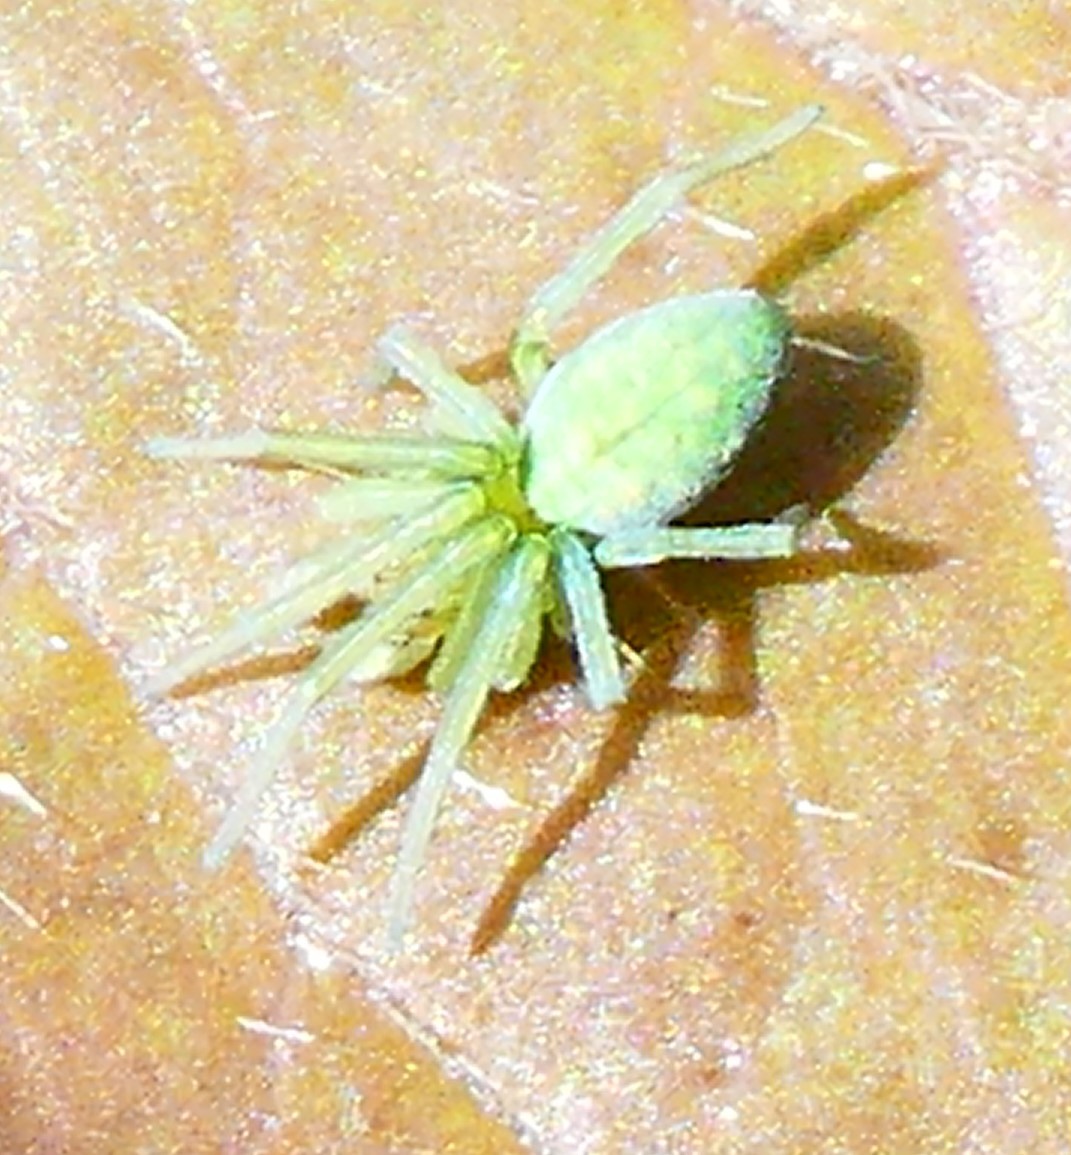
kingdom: Animalia
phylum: Arthropoda
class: Arachnida
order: Araneae
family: Dictynidae
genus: Nigma
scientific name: Nigma walckenaeri
